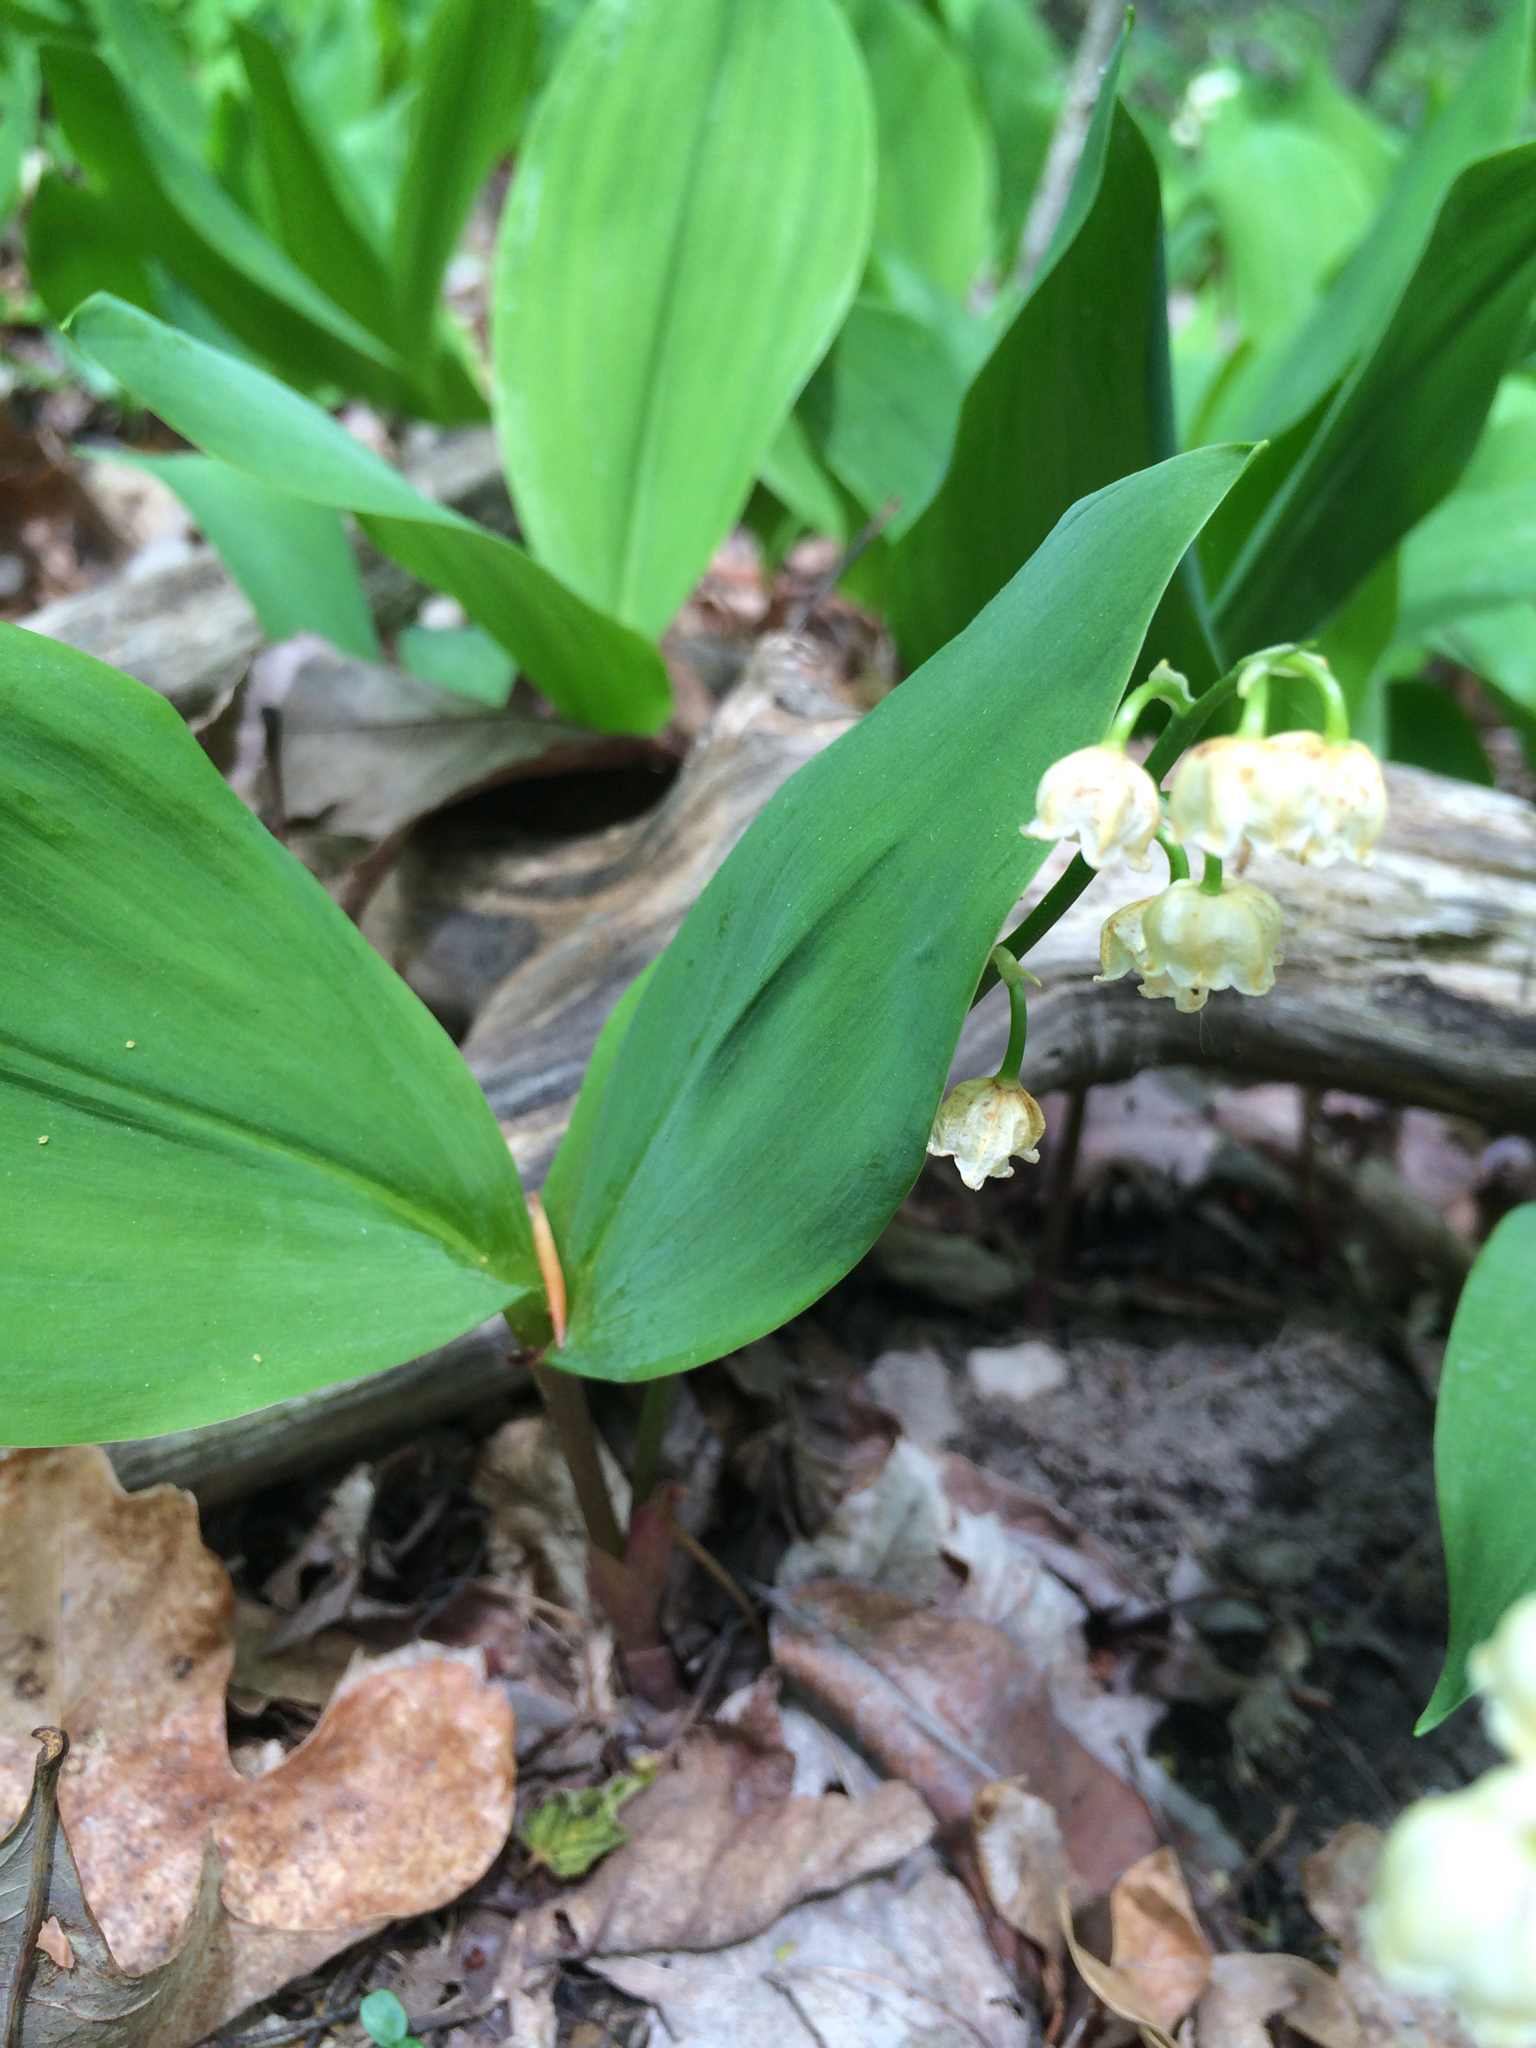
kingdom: Plantae
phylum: Tracheophyta
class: Liliopsida
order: Asparagales
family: Asparagaceae
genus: Convallaria
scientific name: Convallaria majalis
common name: Lily-of-the-valley
